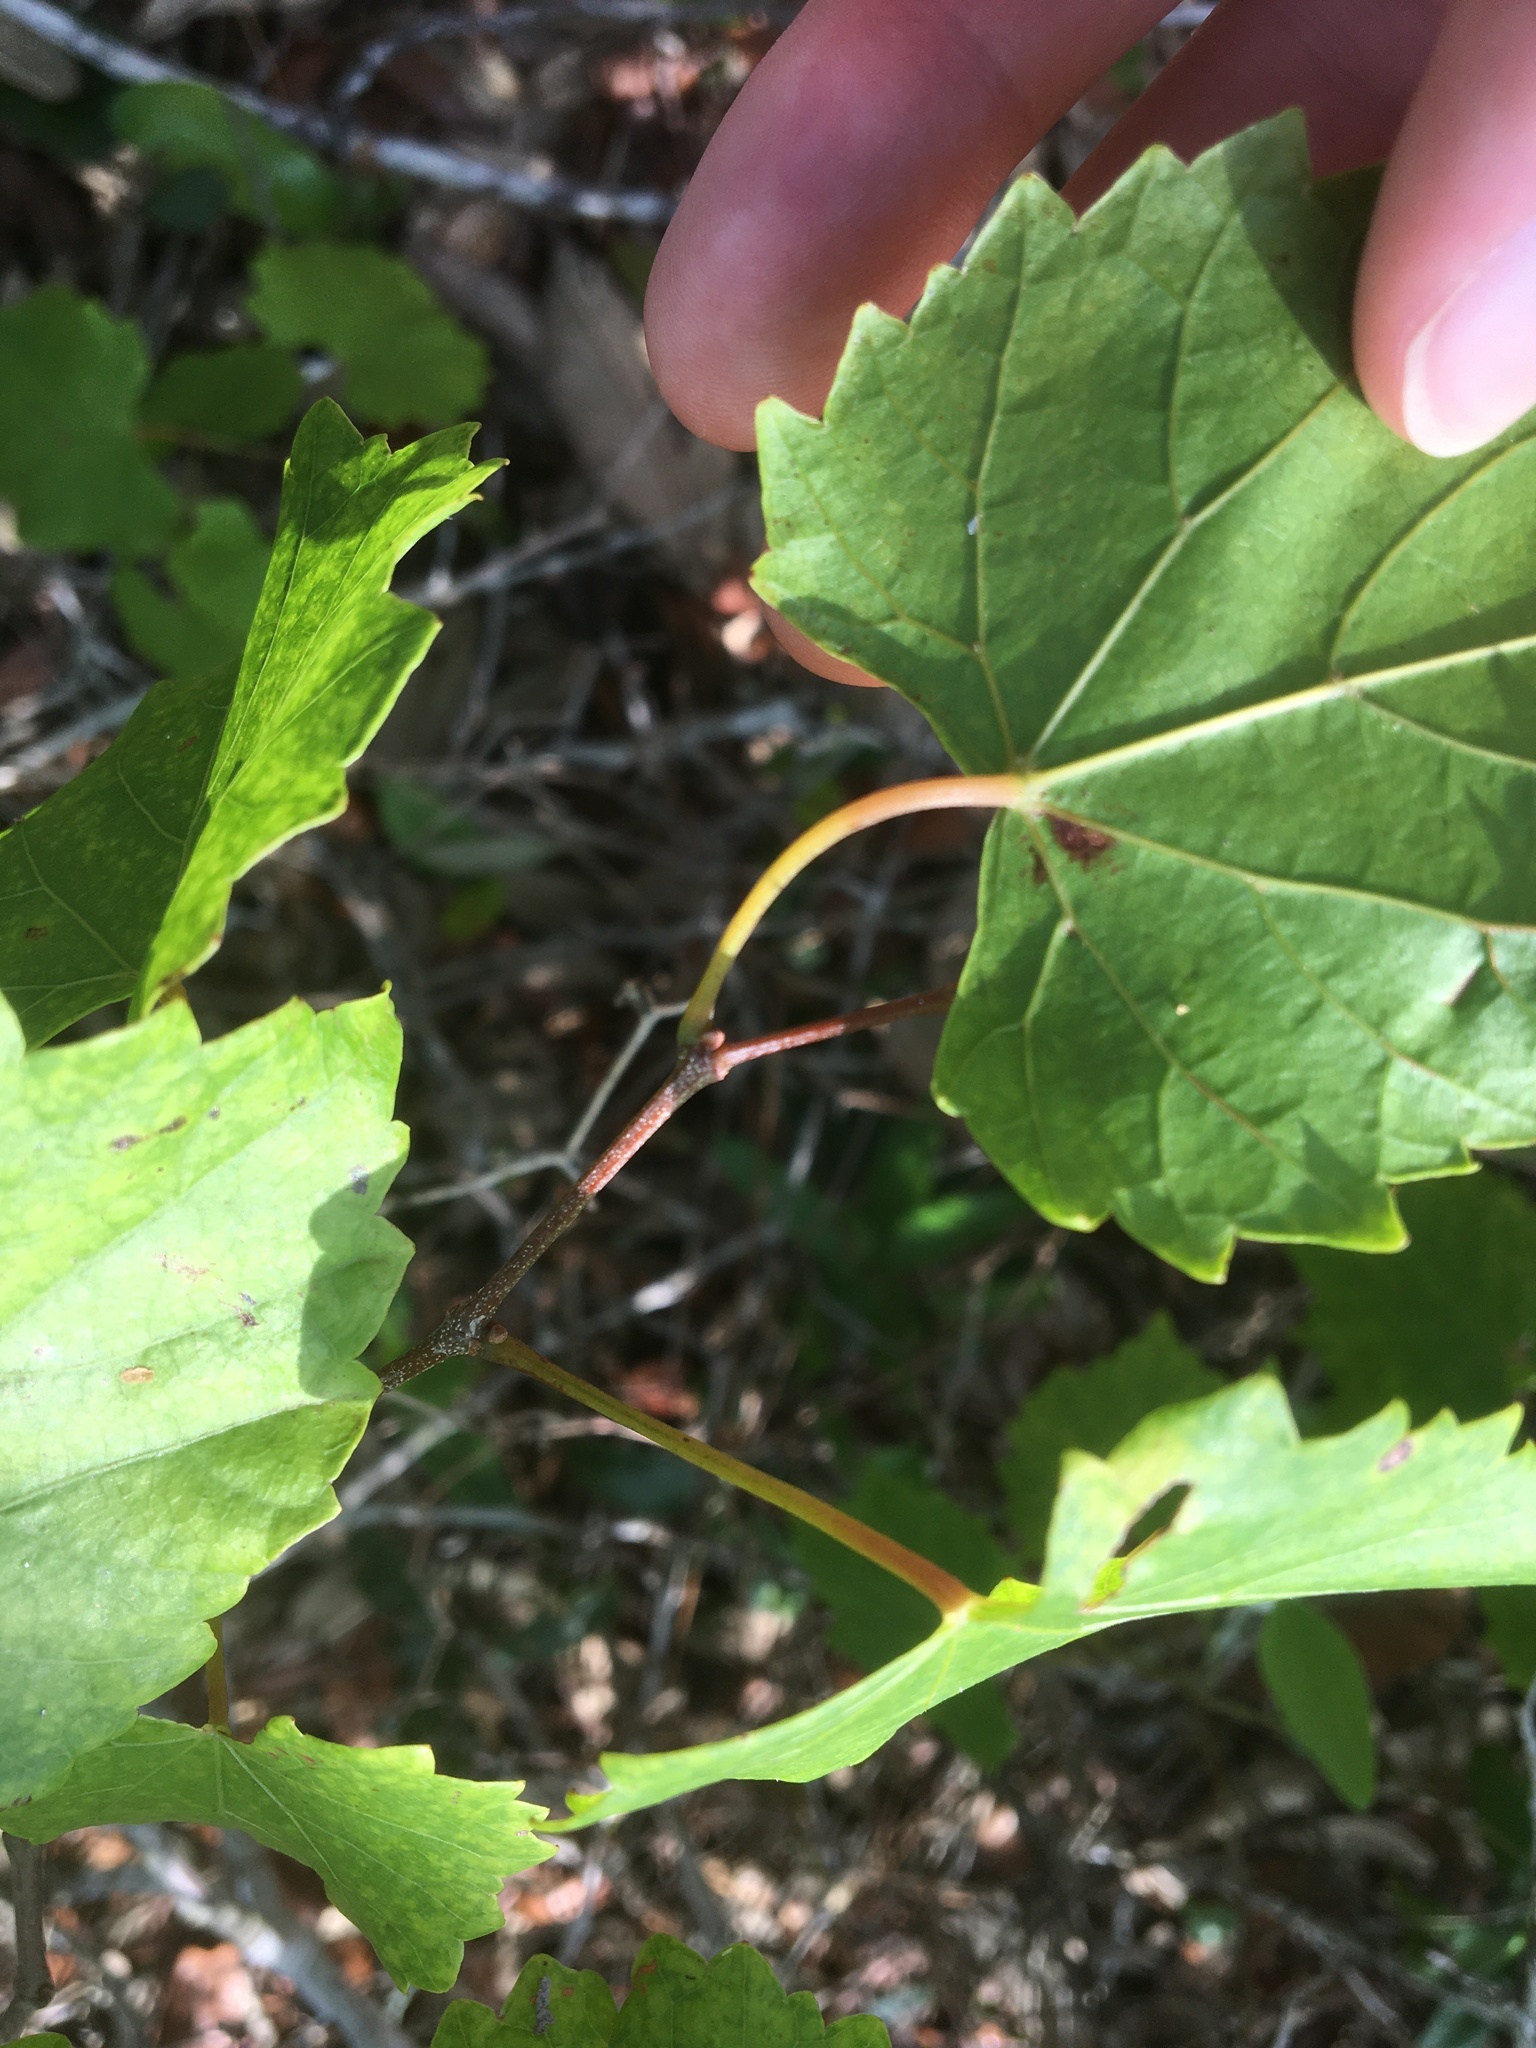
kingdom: Plantae
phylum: Tracheophyta
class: Magnoliopsida
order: Vitales
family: Vitaceae
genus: Vitis
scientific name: Vitis rotundifolia
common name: Muscadine grape
